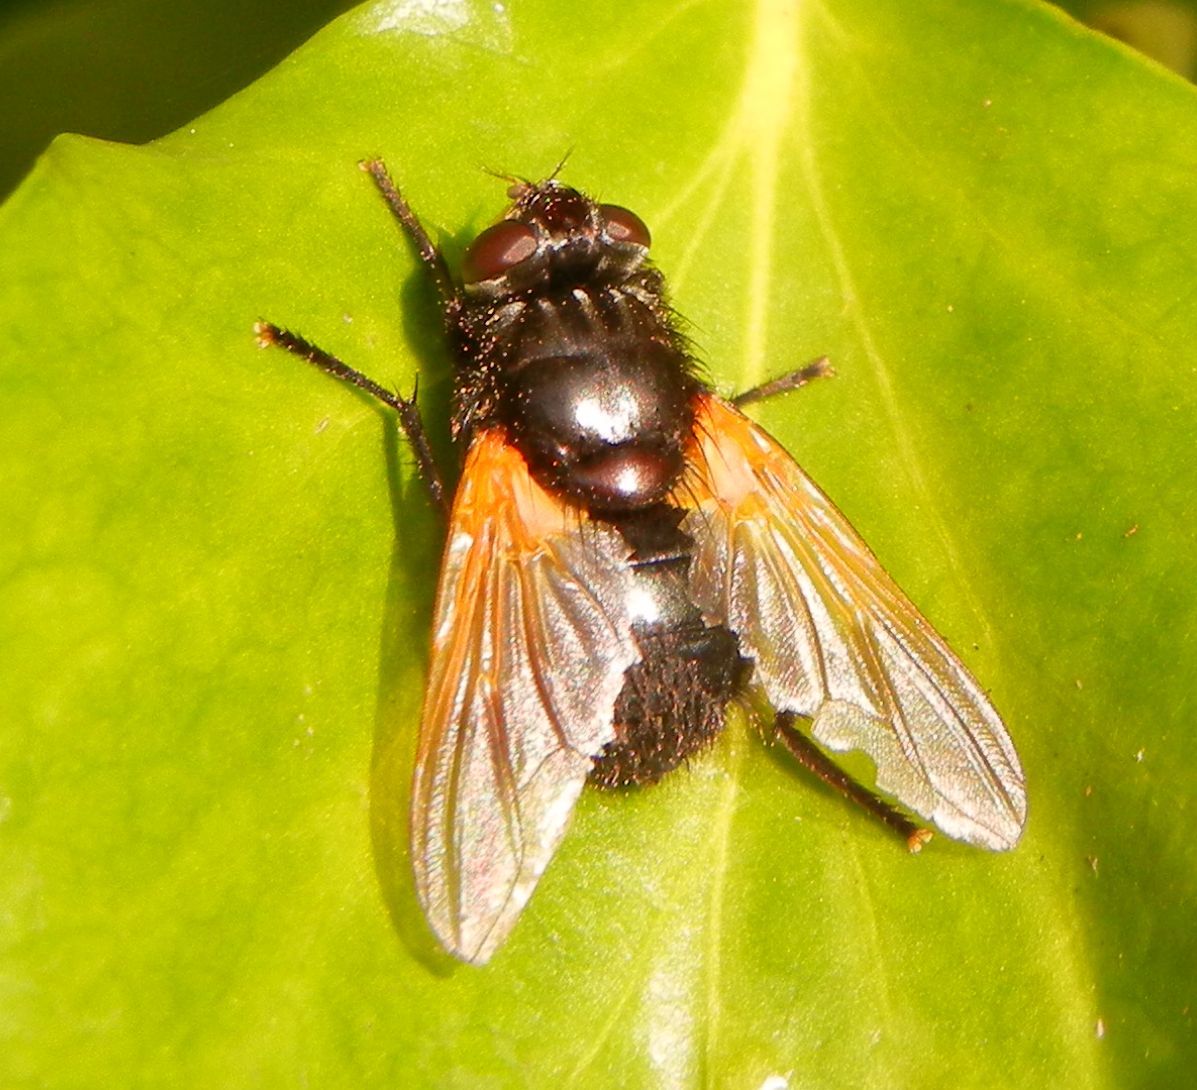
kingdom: Animalia
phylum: Arthropoda
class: Insecta
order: Diptera
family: Muscidae
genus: Mesembrina
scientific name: Mesembrina meridiana
